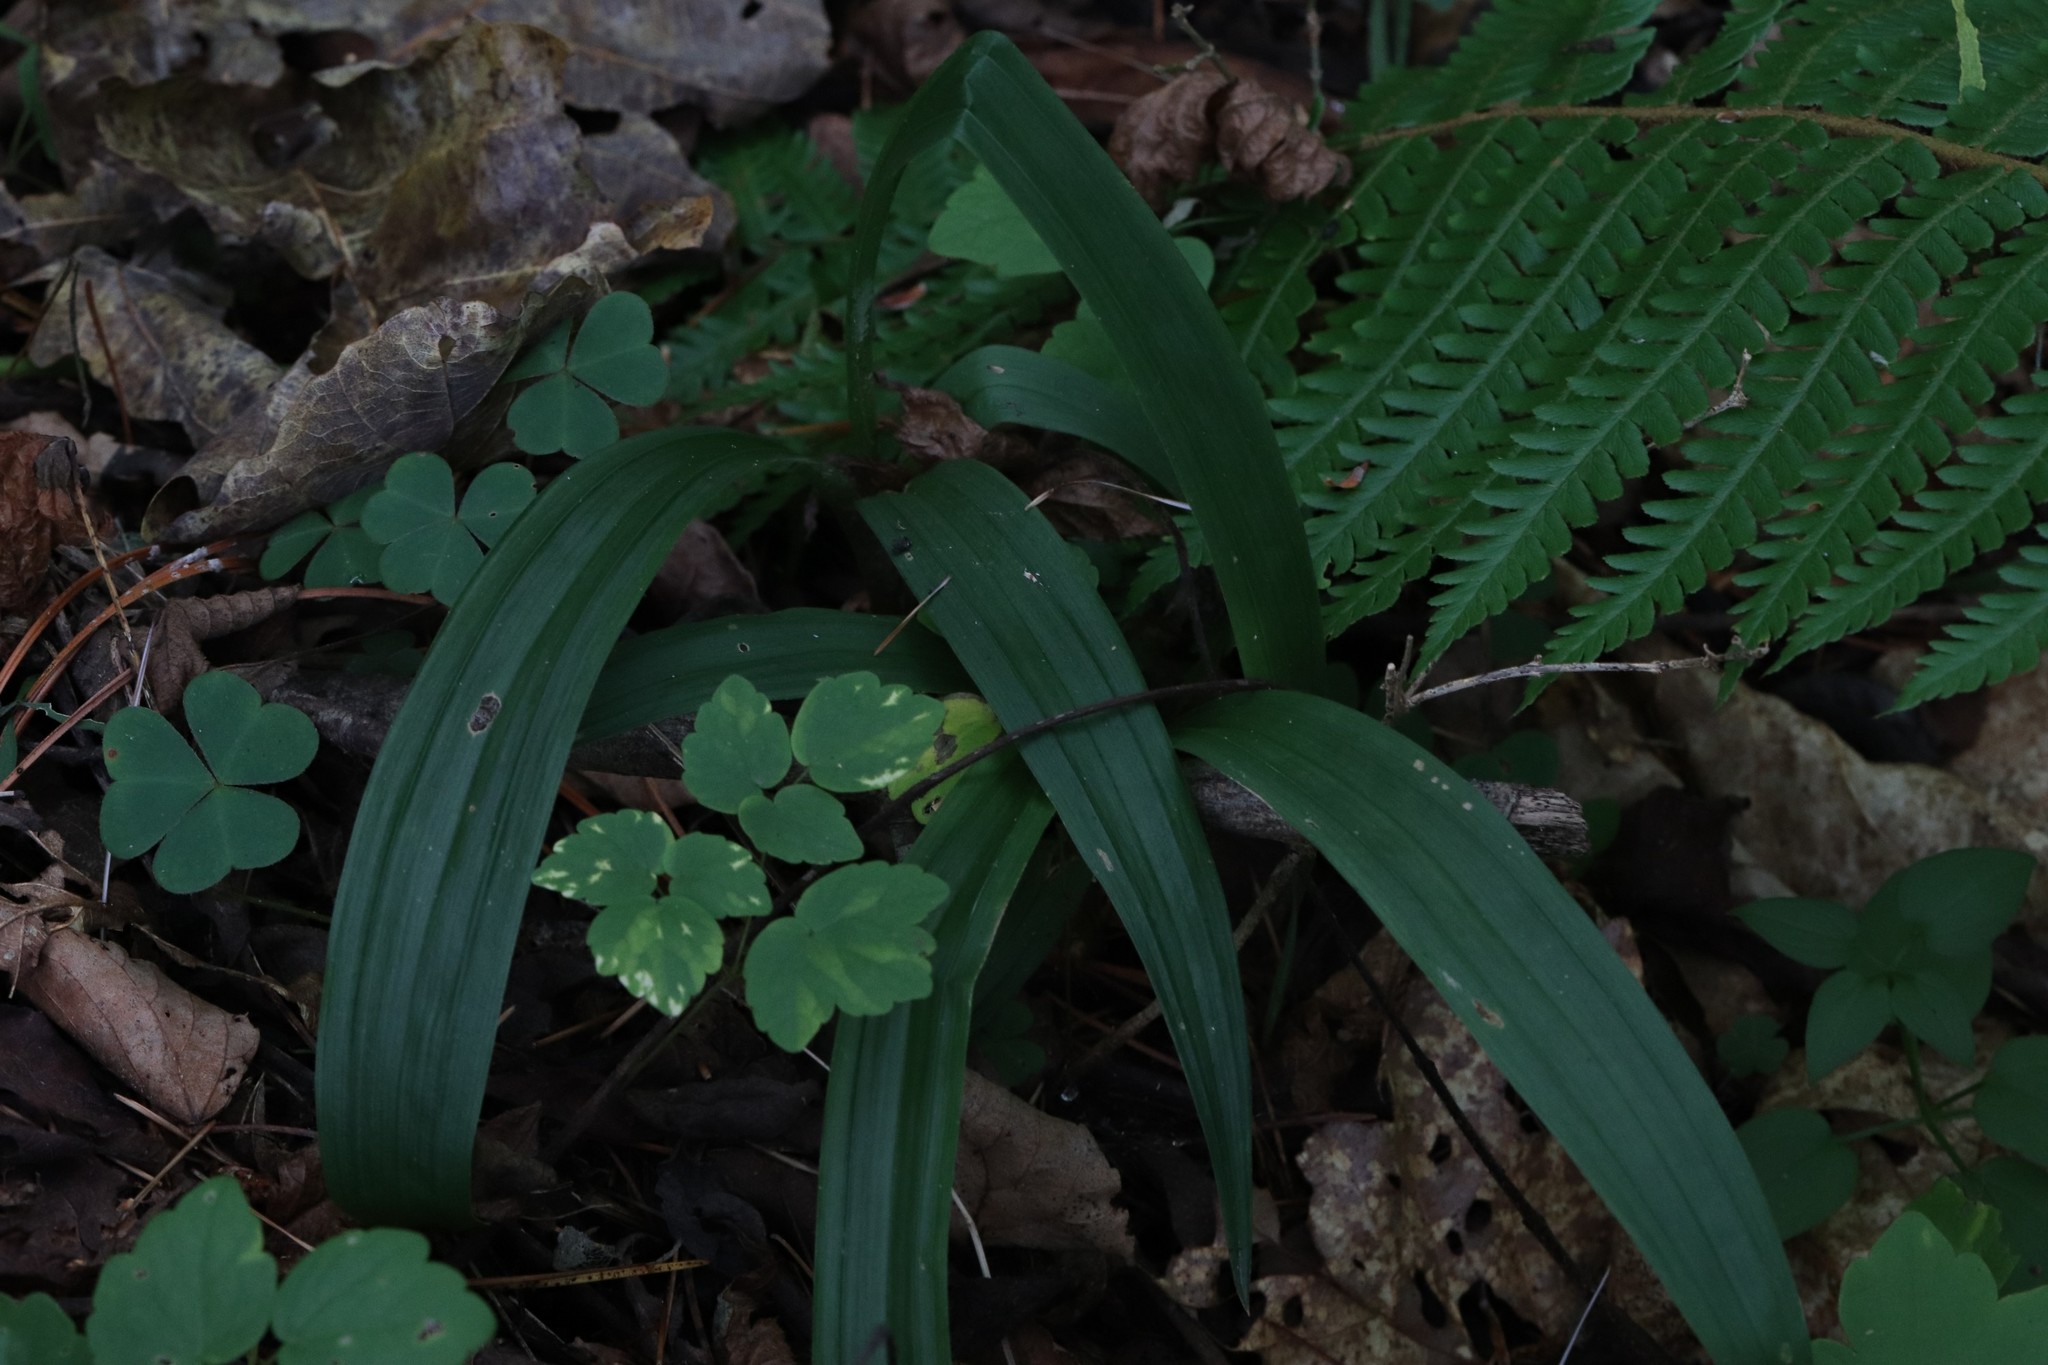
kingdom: Plantae
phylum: Tracheophyta
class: Liliopsida
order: Poales
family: Cyperaceae
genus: Carex
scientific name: Carex siderosticta
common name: Broadleaf sedge
